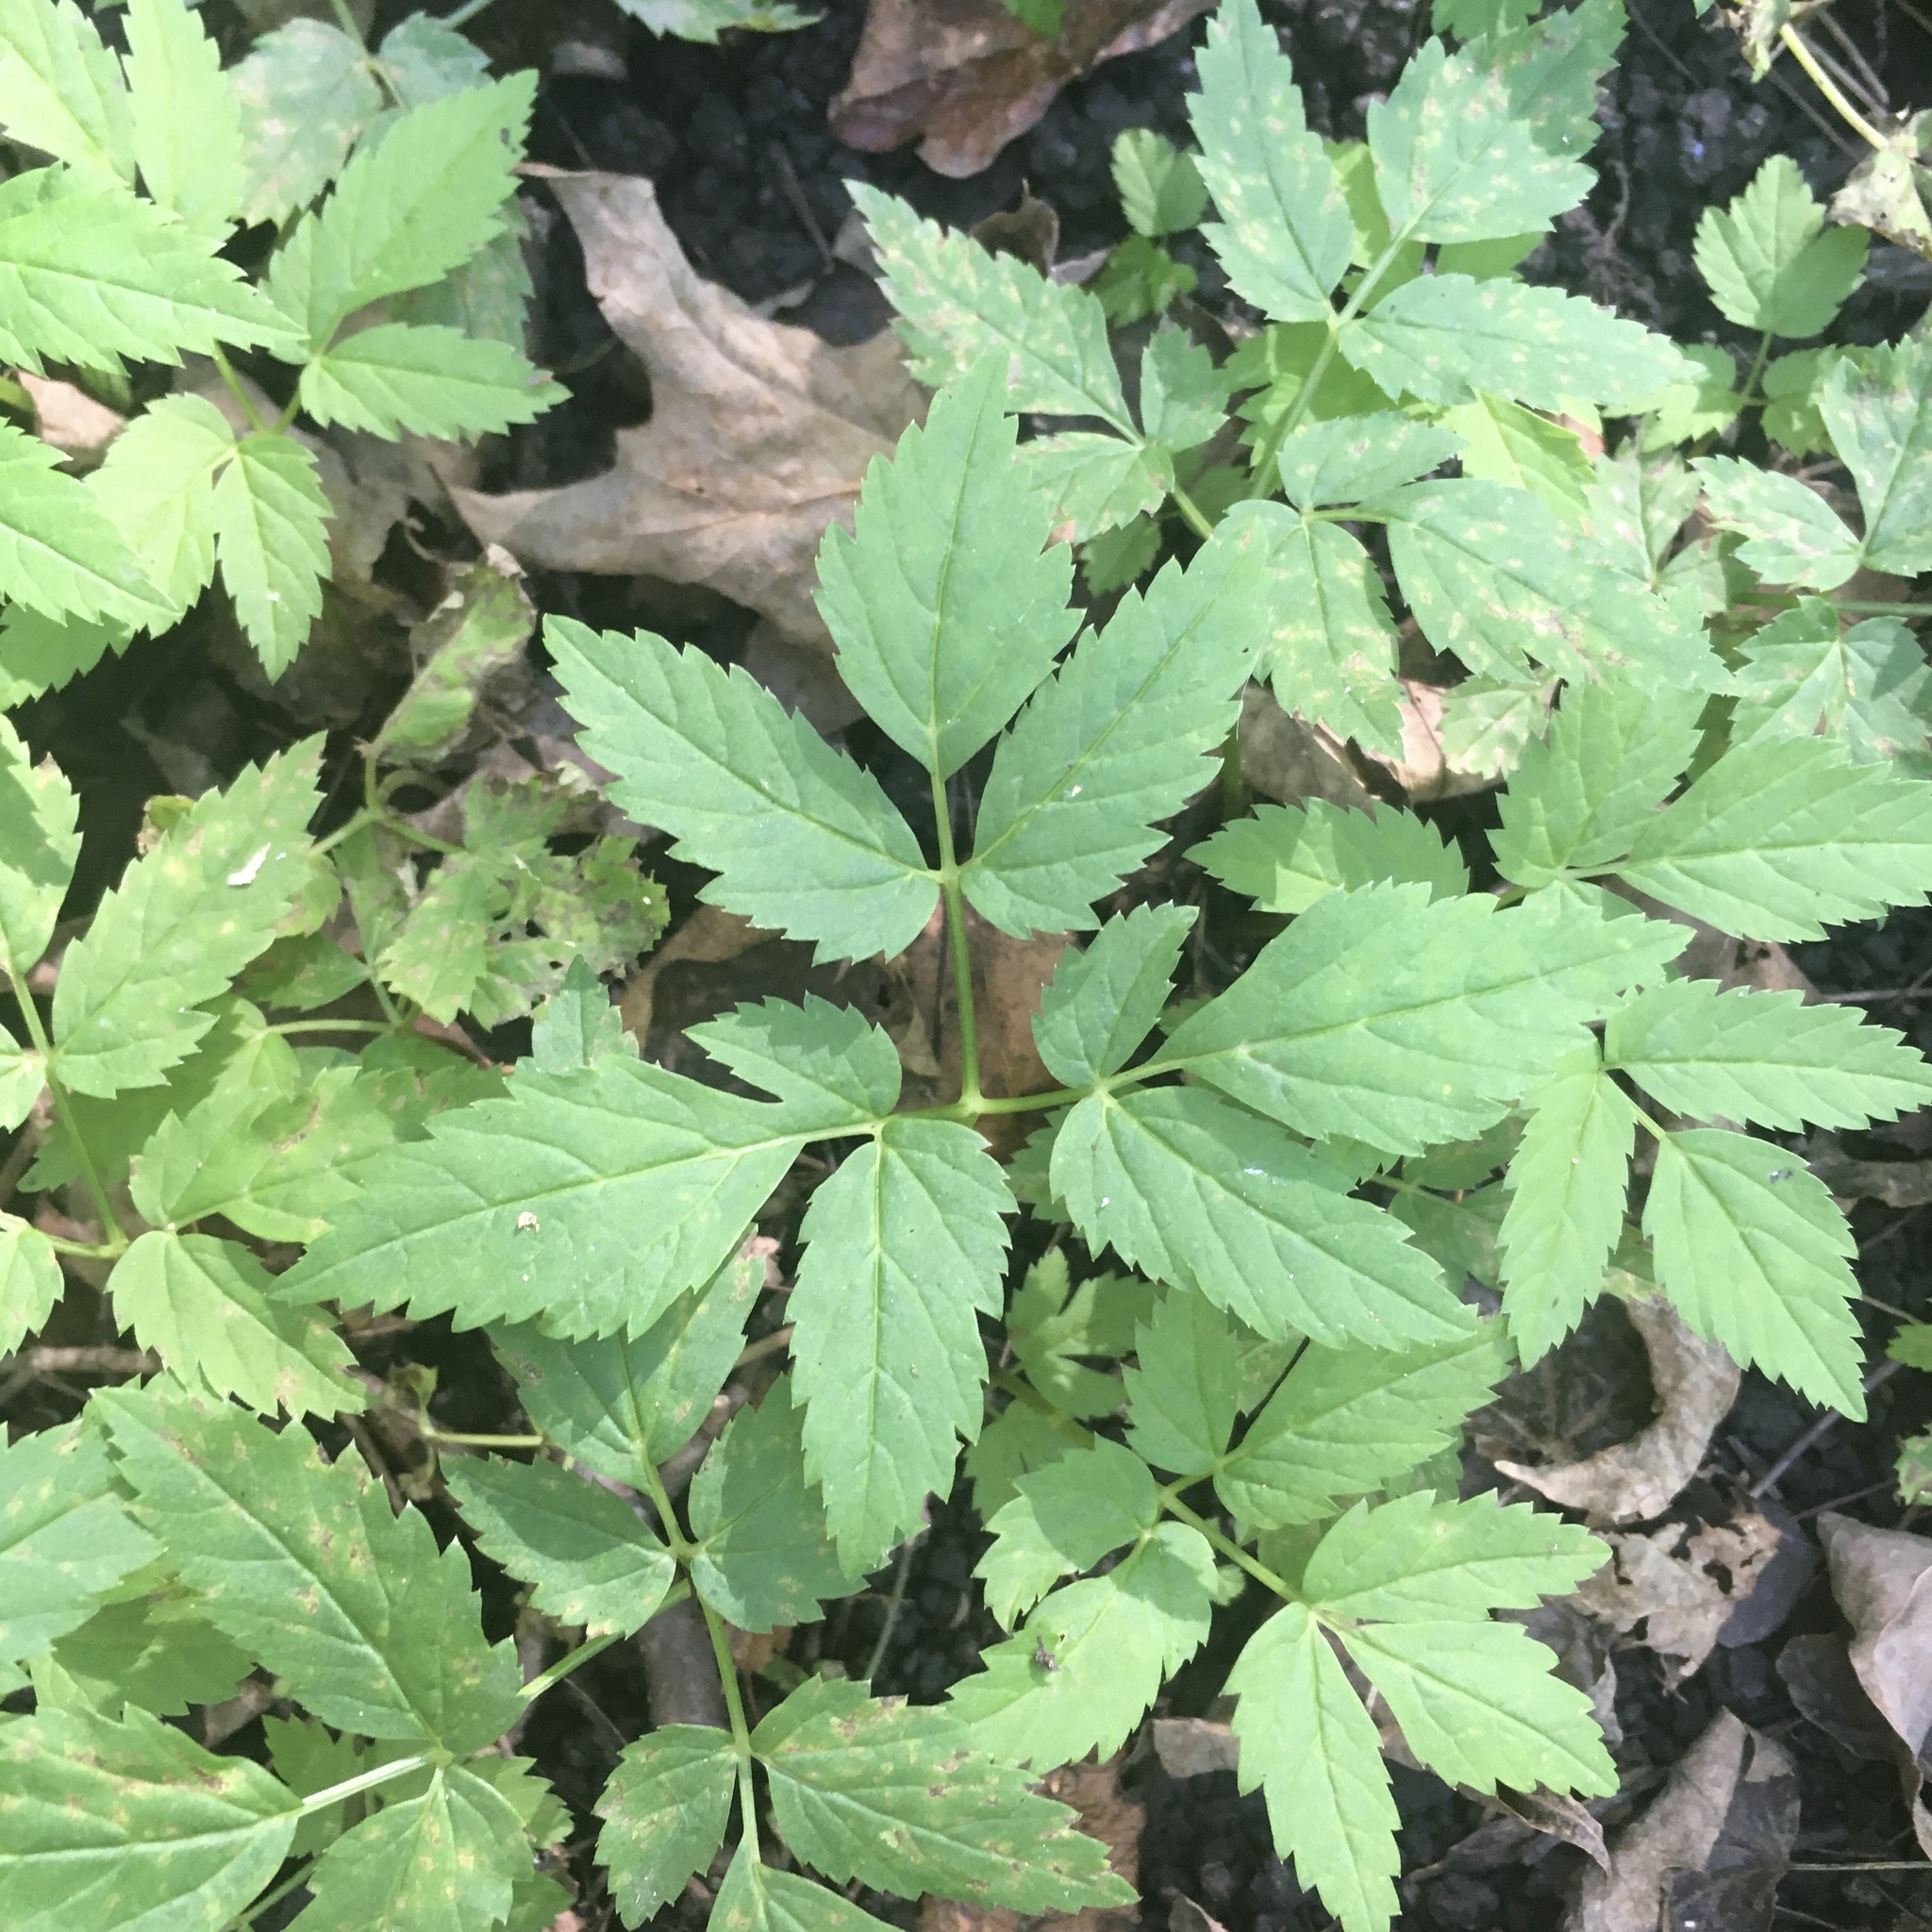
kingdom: Plantae
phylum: Tracheophyta
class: Magnoliopsida
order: Apiales
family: Apiaceae
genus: Aegopodium
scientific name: Aegopodium podagraria
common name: Ground-elder
